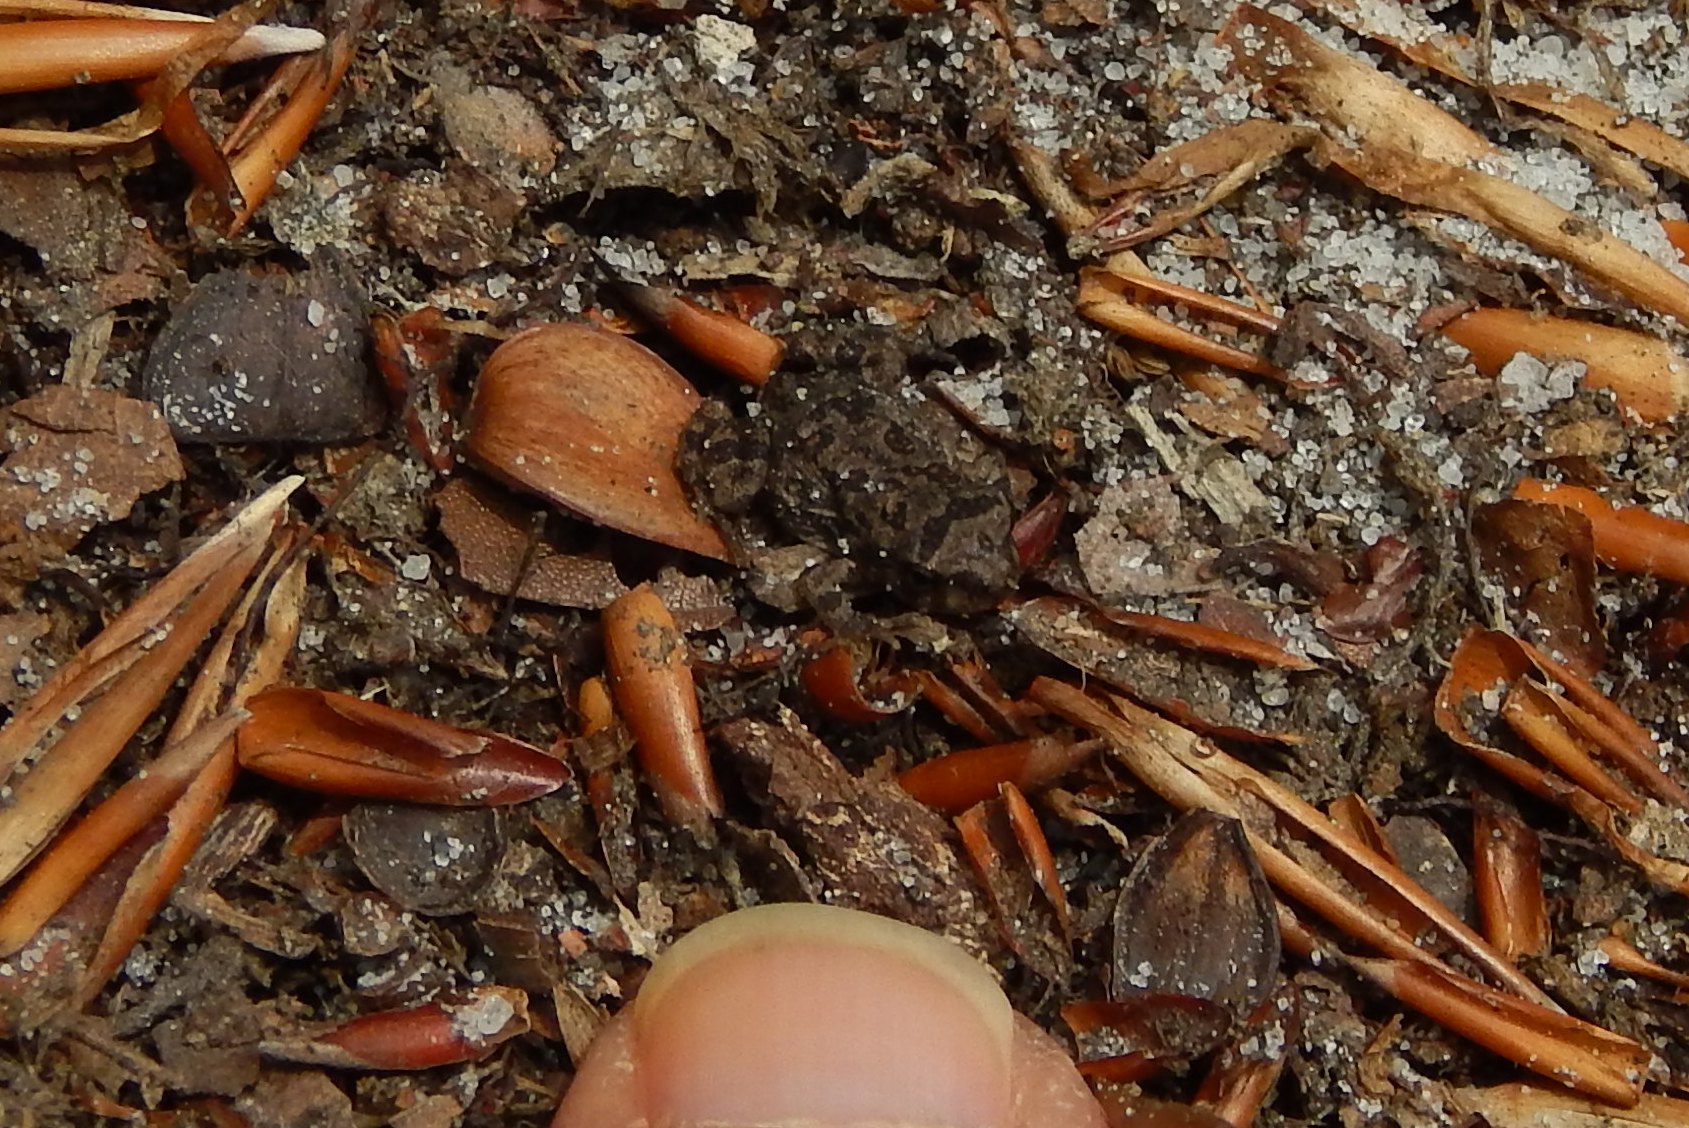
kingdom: Animalia
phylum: Chordata
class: Amphibia
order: Anura
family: Bufonidae
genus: Anaxyrus
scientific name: Anaxyrus fowleri
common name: Fowler's toad
